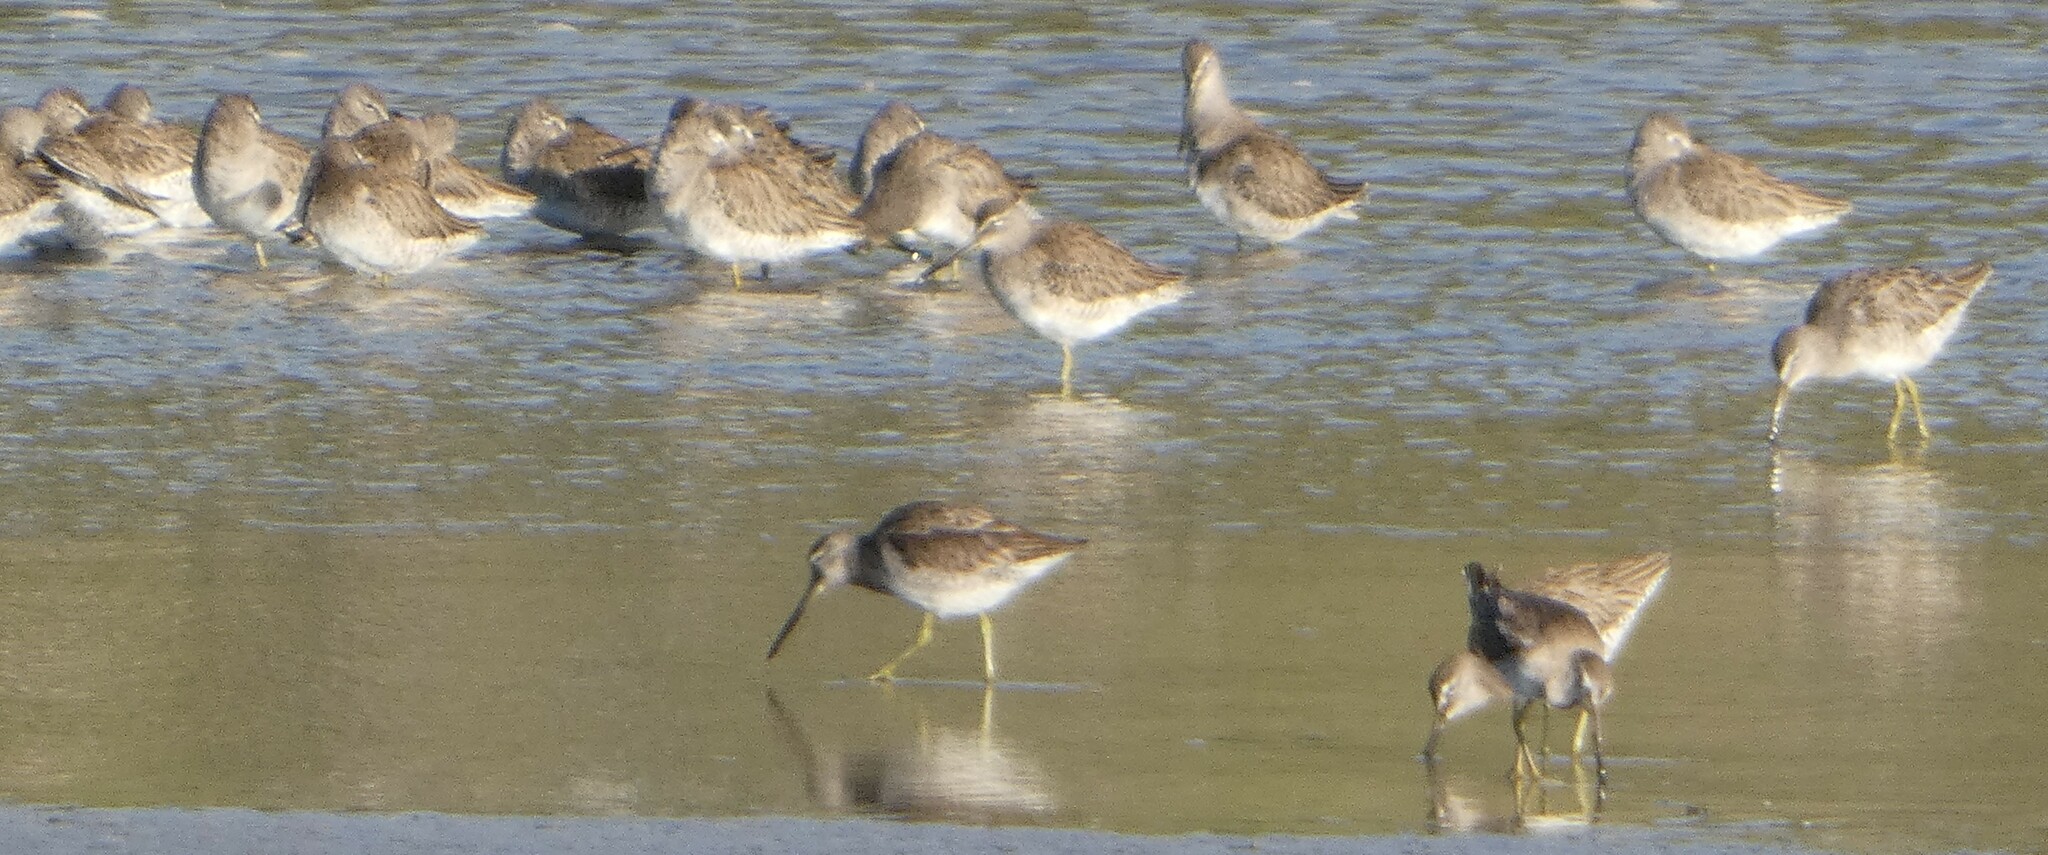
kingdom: Animalia
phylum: Chordata
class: Aves
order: Charadriiformes
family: Scolopacidae
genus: Limnodromus
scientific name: Limnodromus griseus
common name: Short-billed dowitcher
